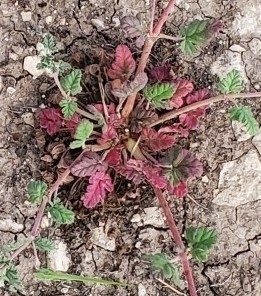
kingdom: Plantae
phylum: Tracheophyta
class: Magnoliopsida
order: Geraniales
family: Geraniaceae
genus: Erodium
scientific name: Erodium texanum
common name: Texas stork's-bill
